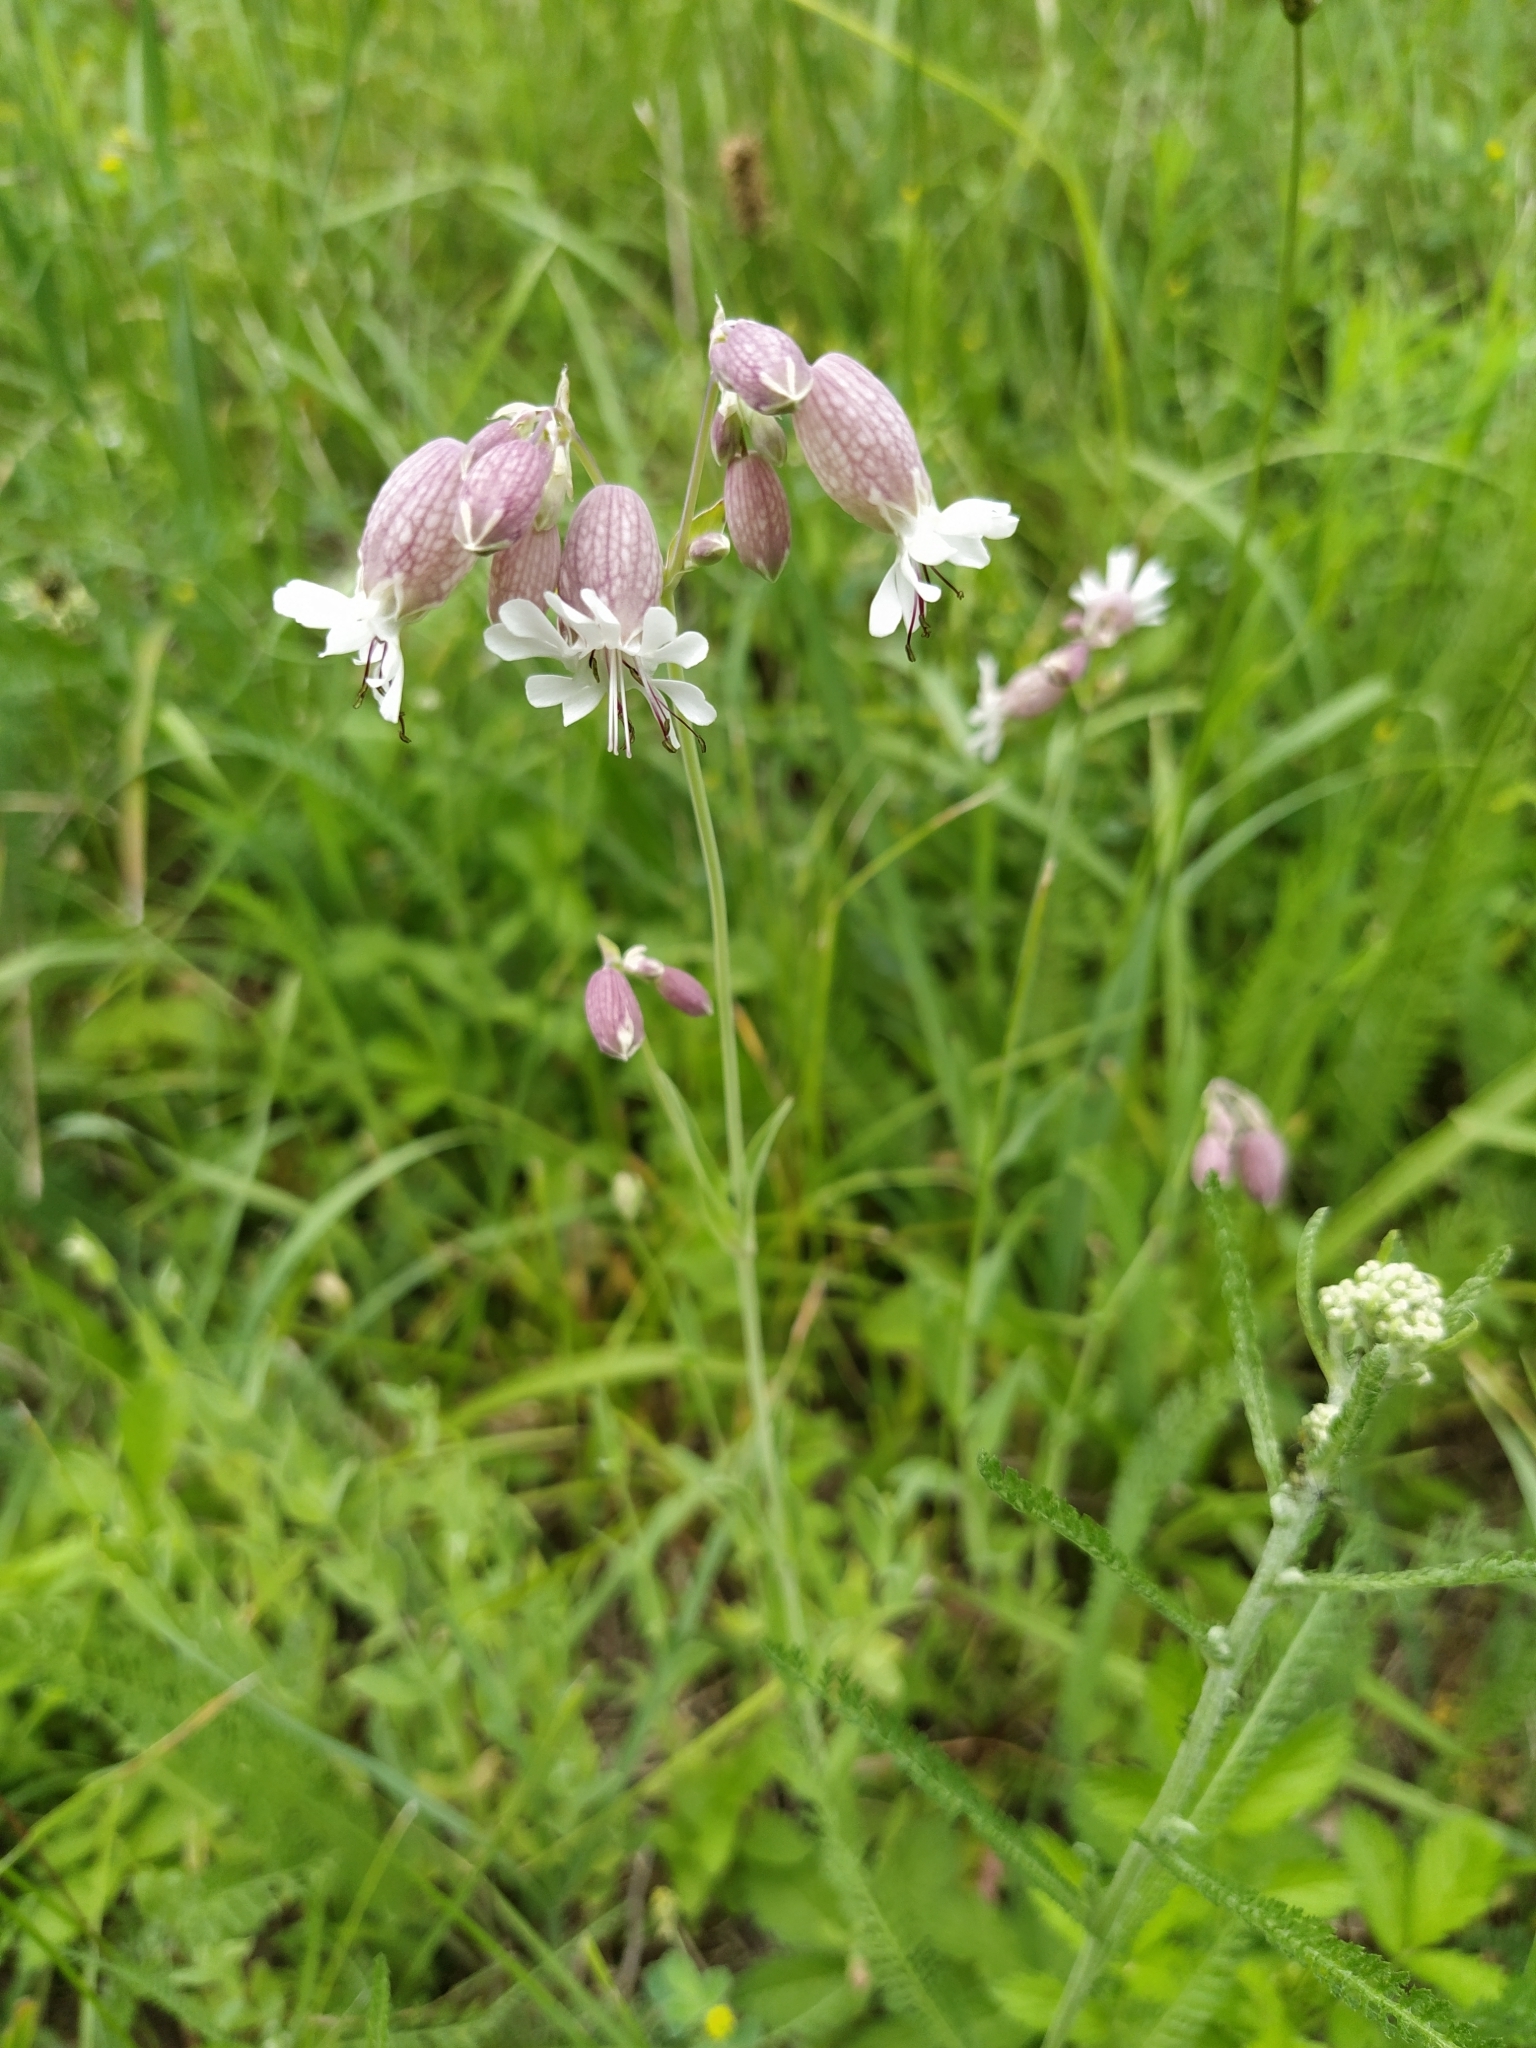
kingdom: Plantae
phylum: Tracheophyta
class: Magnoliopsida
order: Caryophyllales
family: Caryophyllaceae
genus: Silene
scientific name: Silene vulgaris
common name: Bladder campion
